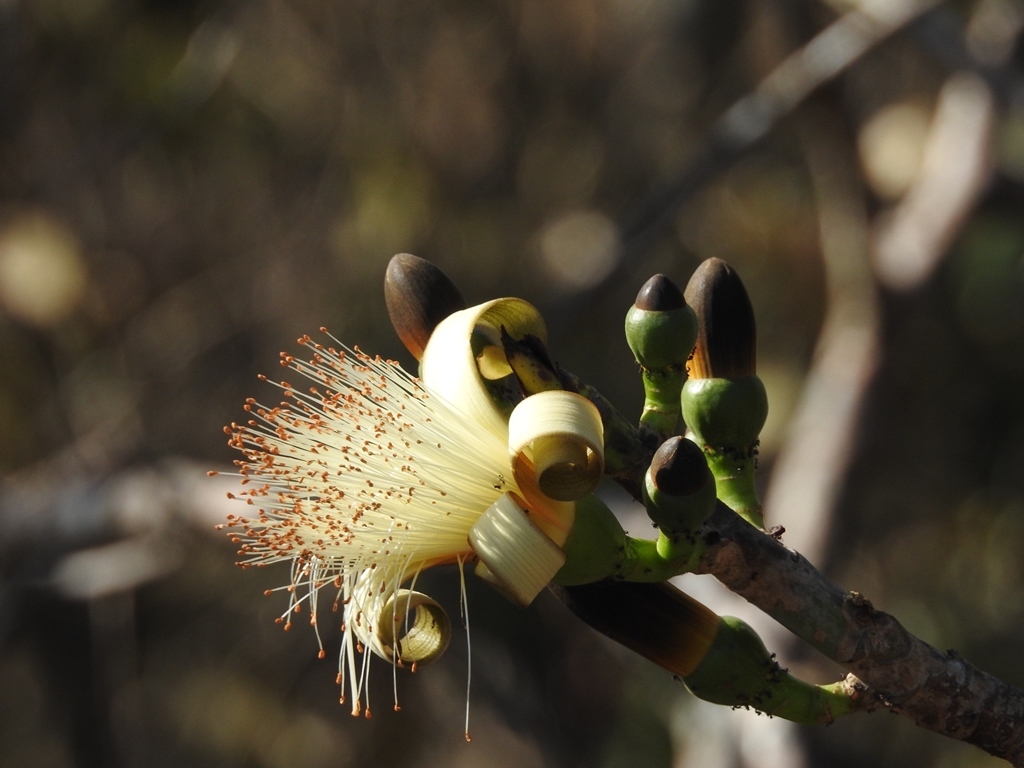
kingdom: Plantae
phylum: Tracheophyta
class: Magnoliopsida
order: Malvales
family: Malvaceae
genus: Pseudobombax
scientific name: Pseudobombax ellipticum
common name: Shaving-brush-tree
